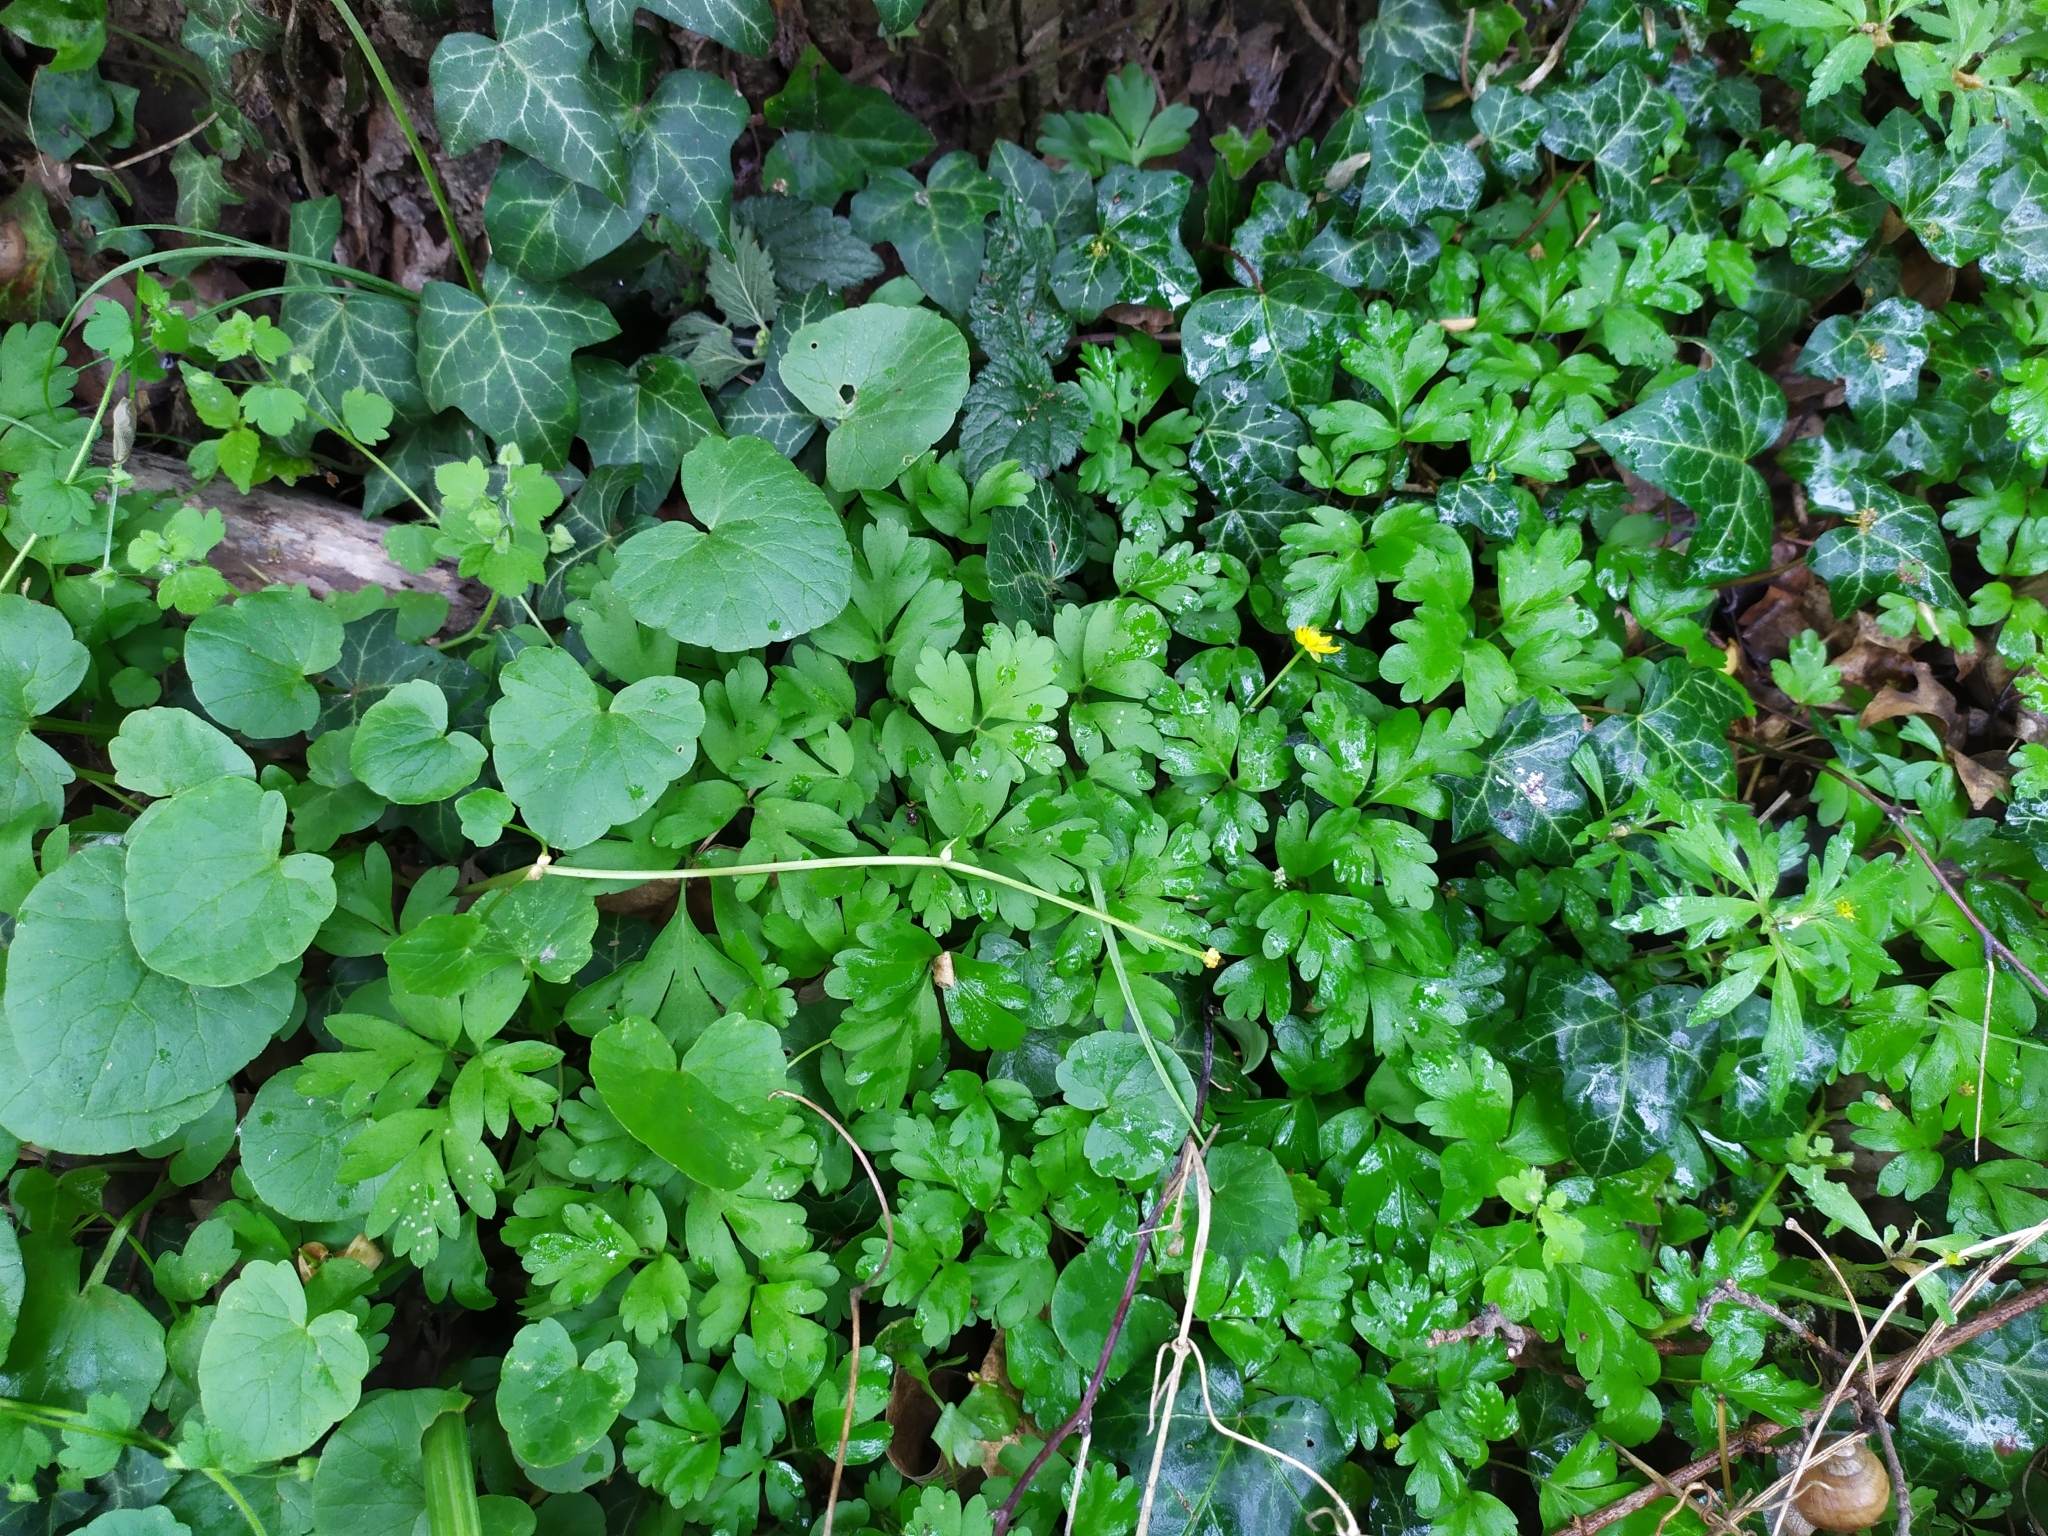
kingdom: Plantae
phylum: Tracheophyta
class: Magnoliopsida
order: Dipsacales
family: Viburnaceae
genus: Adoxa
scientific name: Adoxa moschatellina
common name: Moschatel
